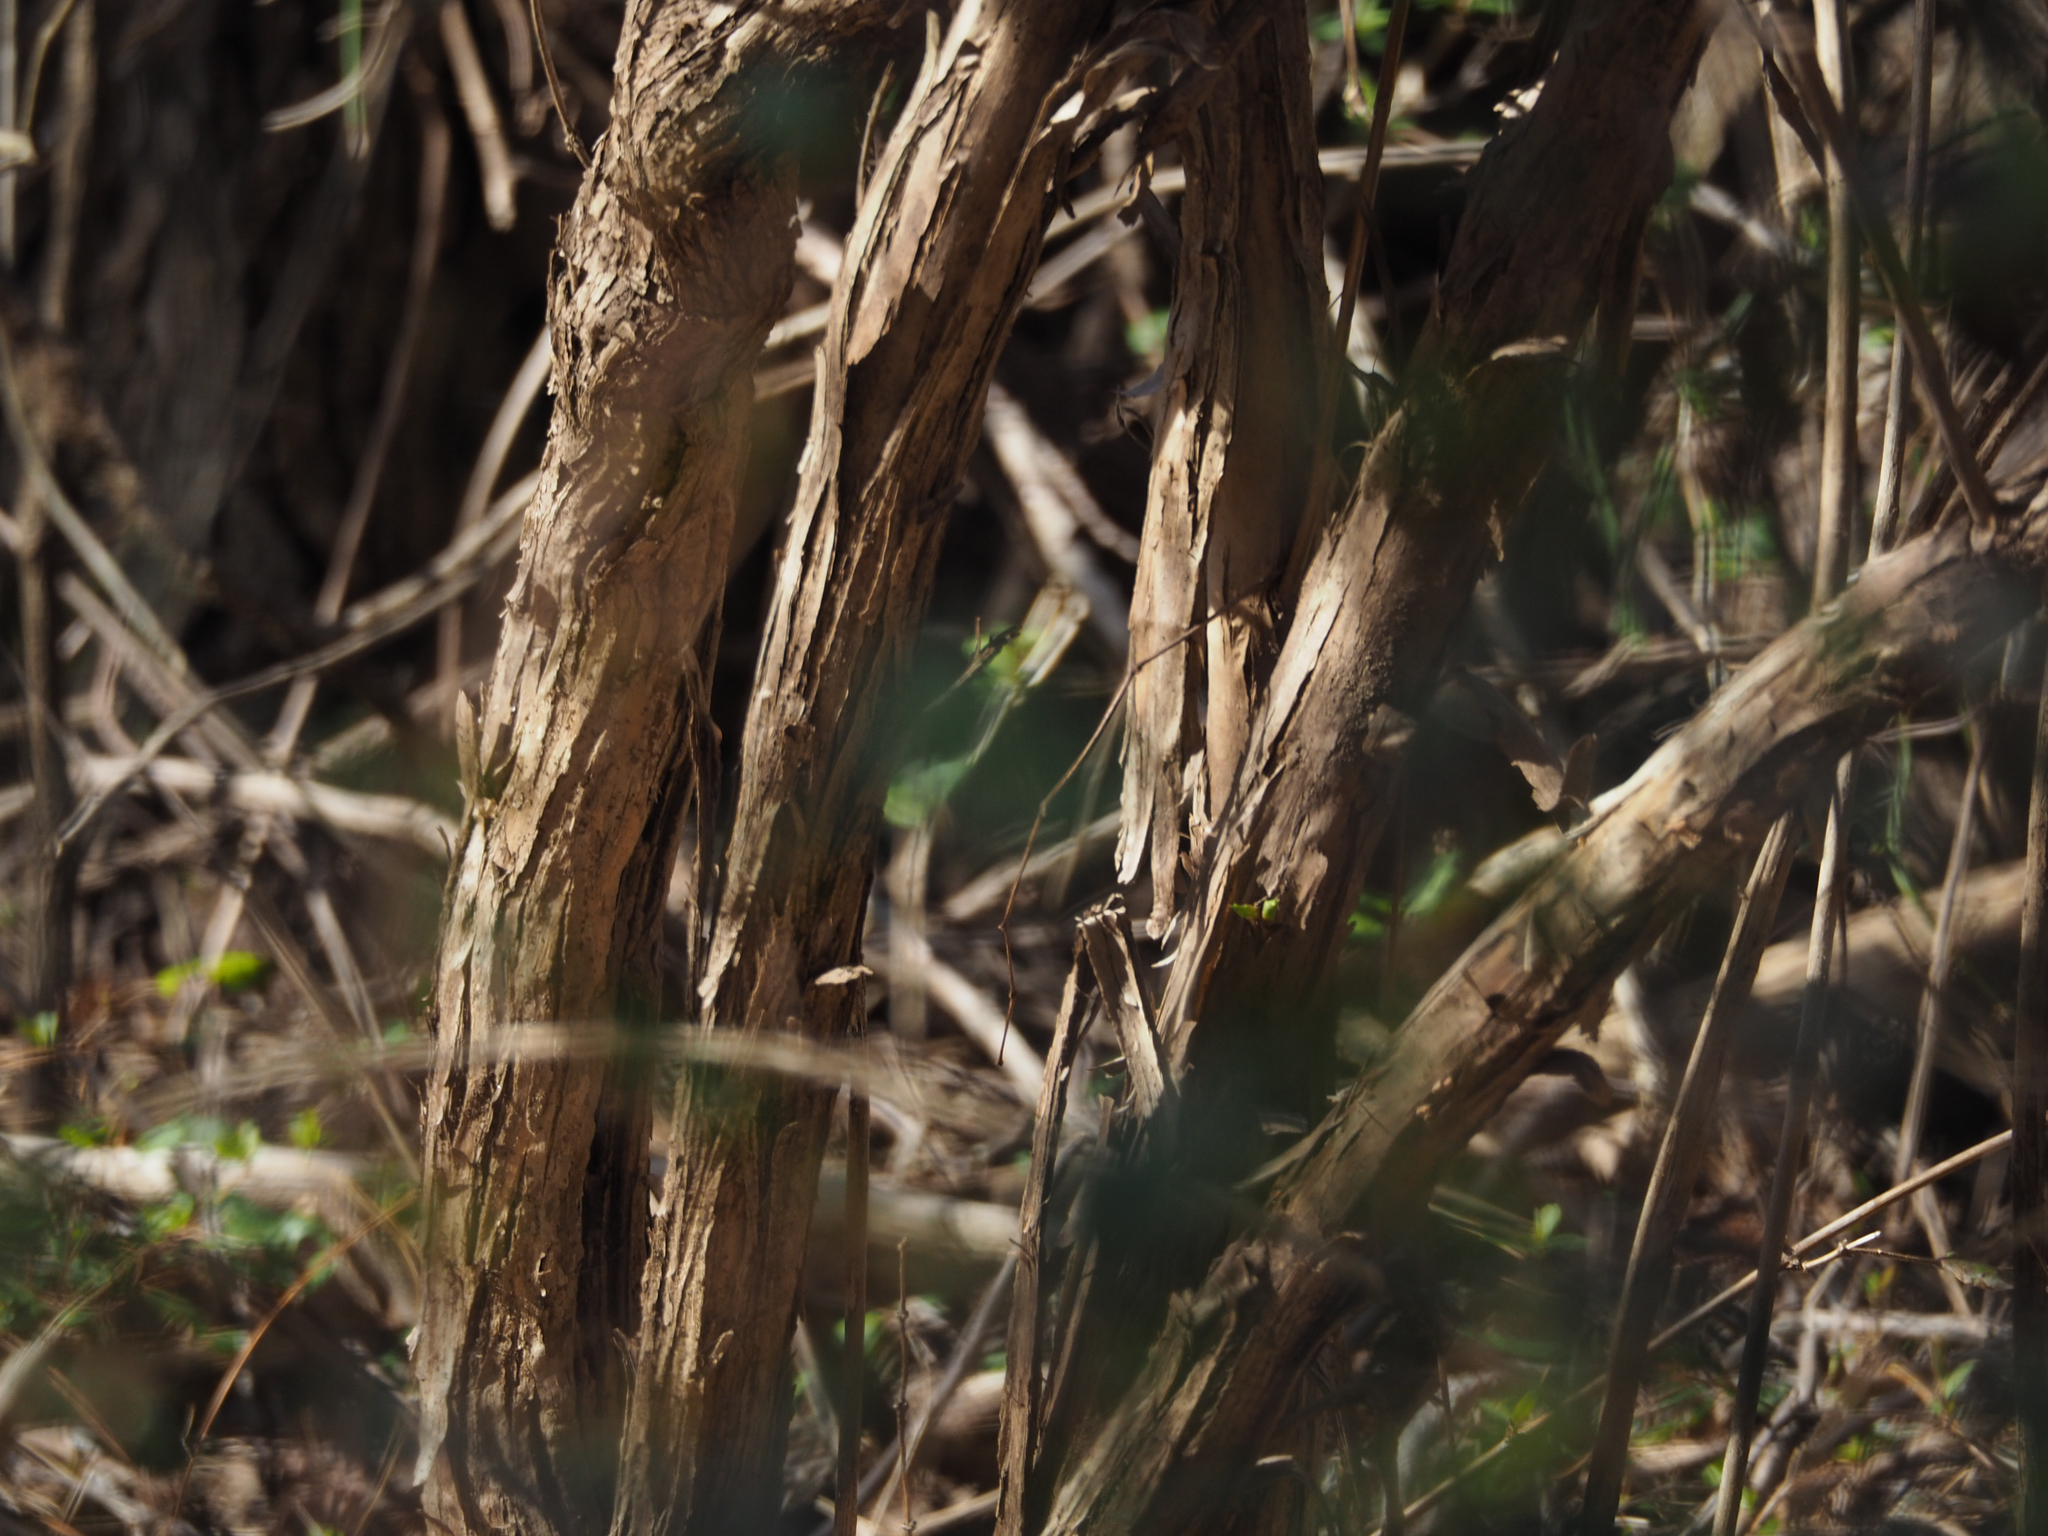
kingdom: Plantae
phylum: Tracheophyta
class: Magnoliopsida
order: Dipsacales
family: Caprifoliaceae
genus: Lonicera
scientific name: Lonicera fragrantissima
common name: Fragrant honeysuckle
